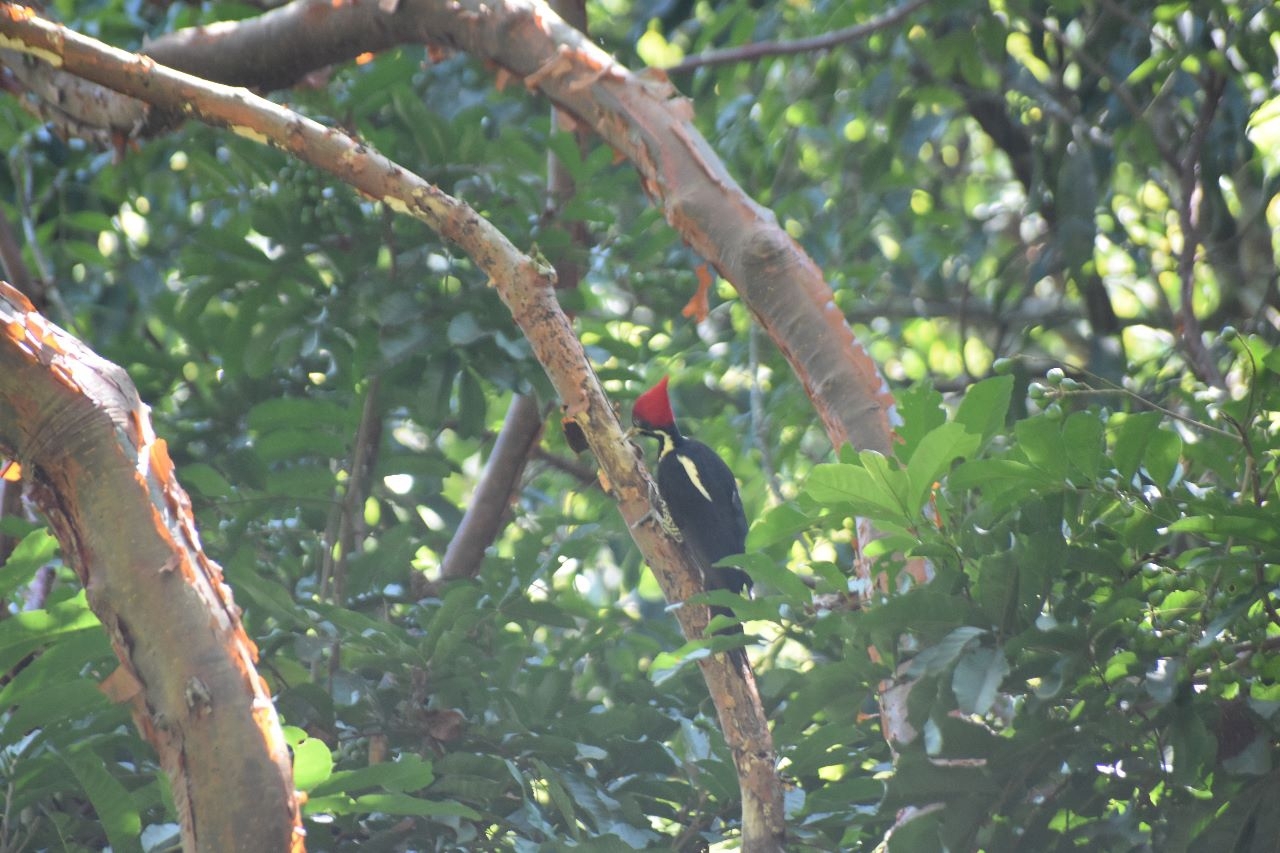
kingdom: Animalia
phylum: Chordata
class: Aves
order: Piciformes
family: Picidae
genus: Dryocopus
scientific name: Dryocopus lineatus
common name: Lineated woodpecker
